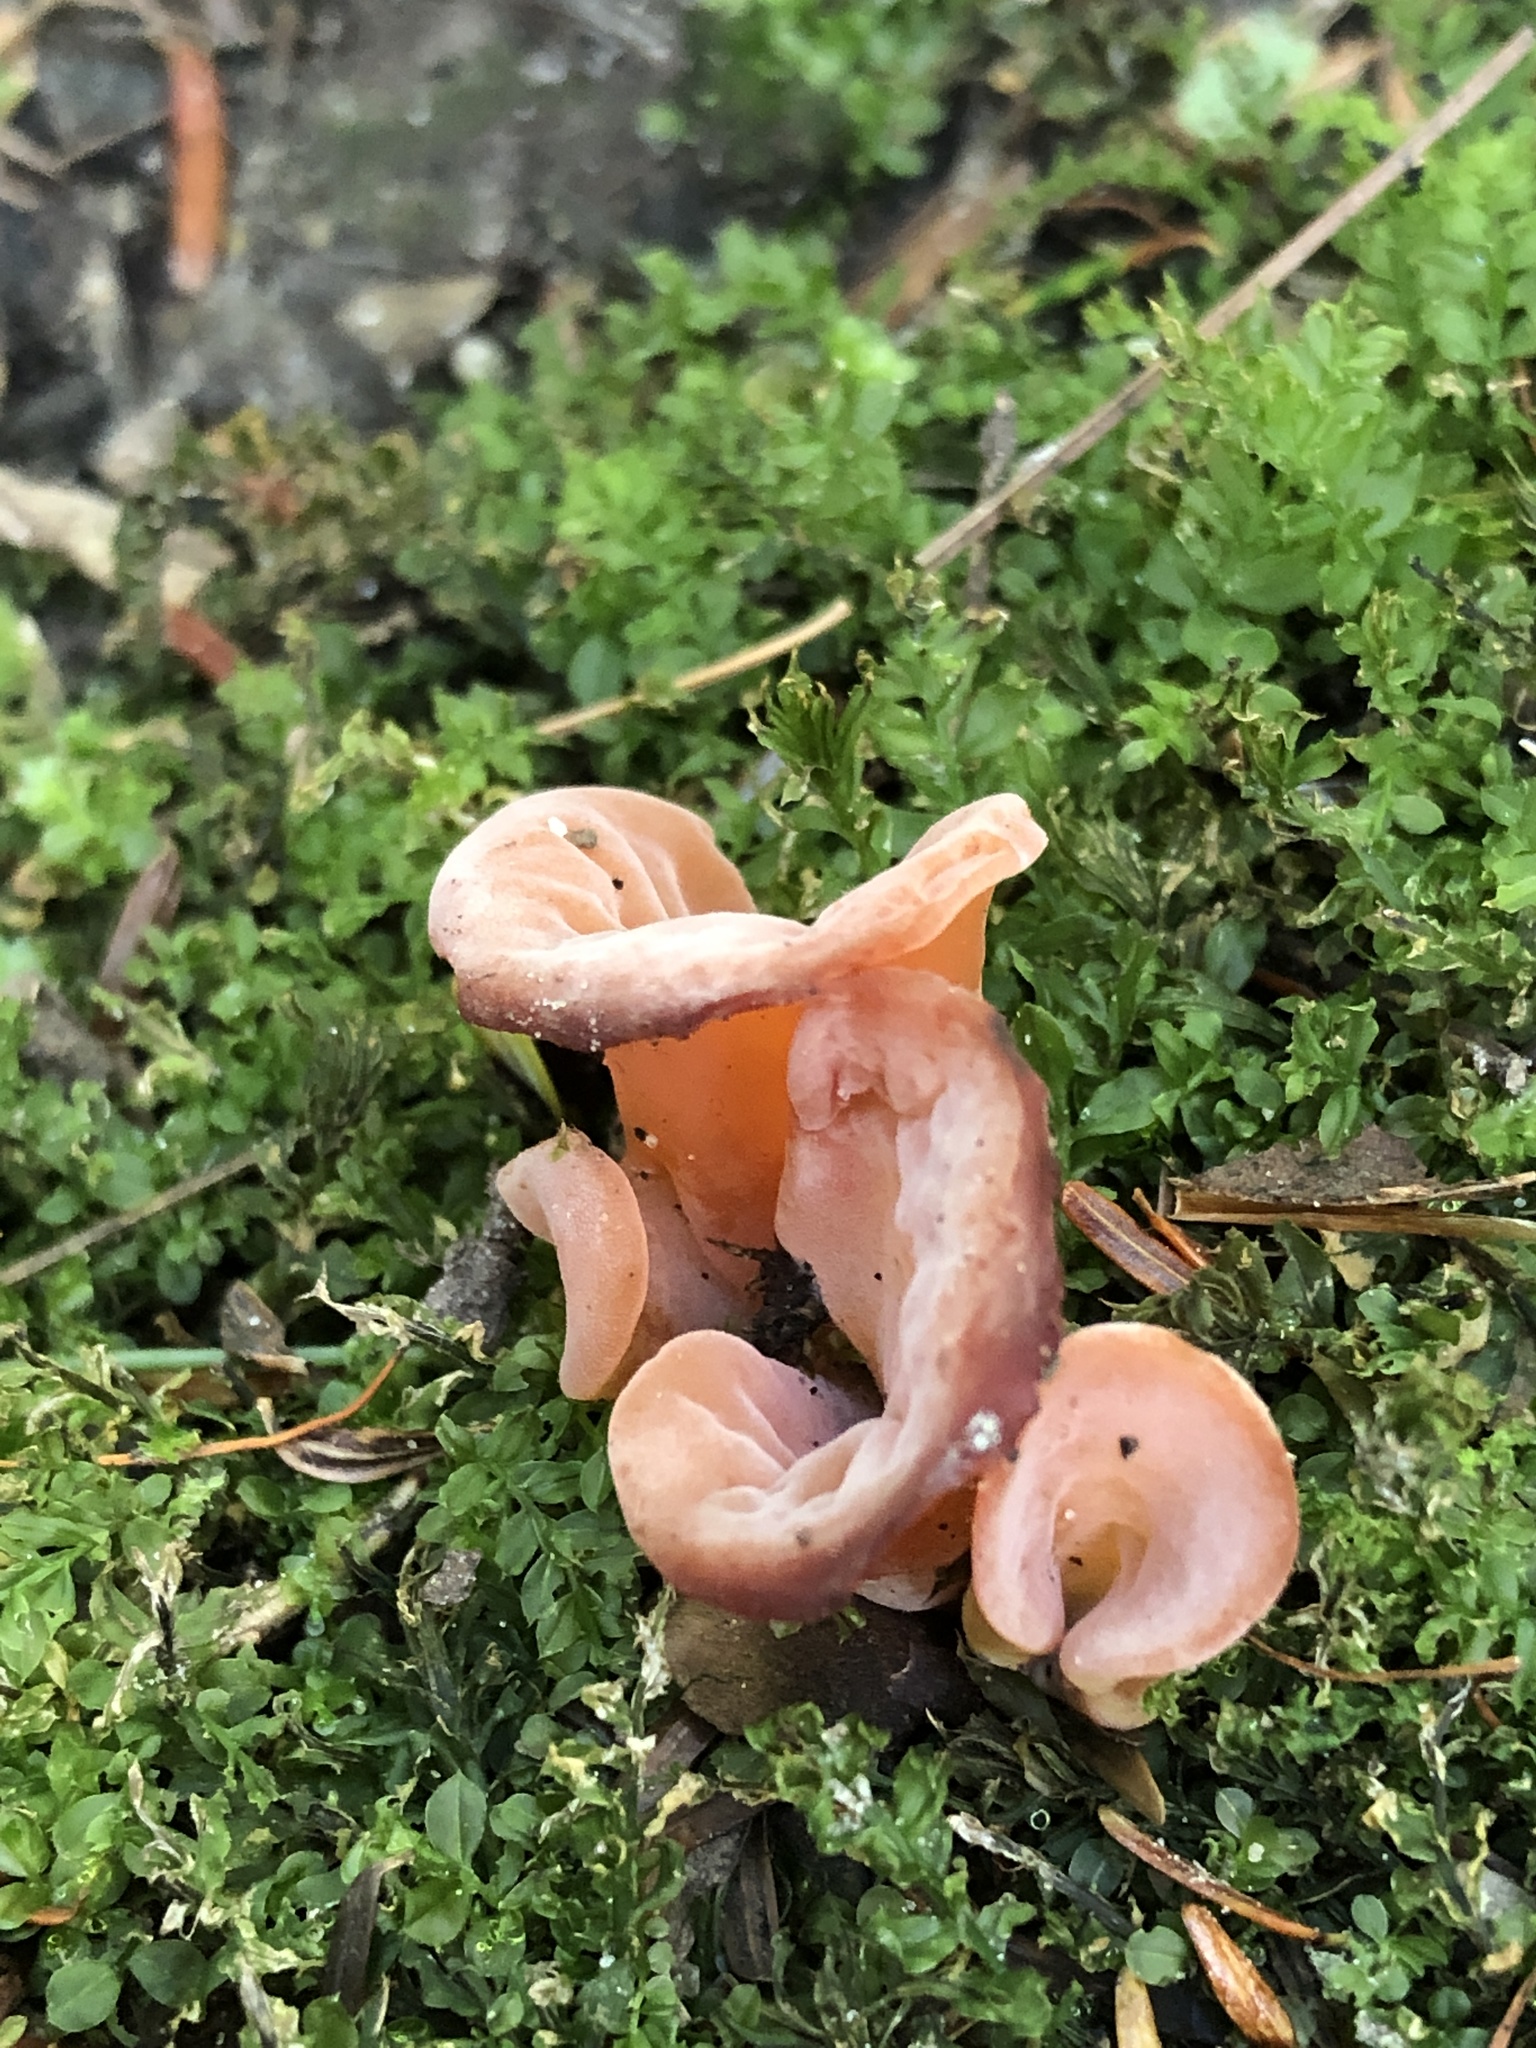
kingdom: Fungi
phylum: Basidiomycota
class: Agaricomycetes
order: Auriculariales
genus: Guepinia
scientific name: Guepinia helvelloides
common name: Salmon salad
